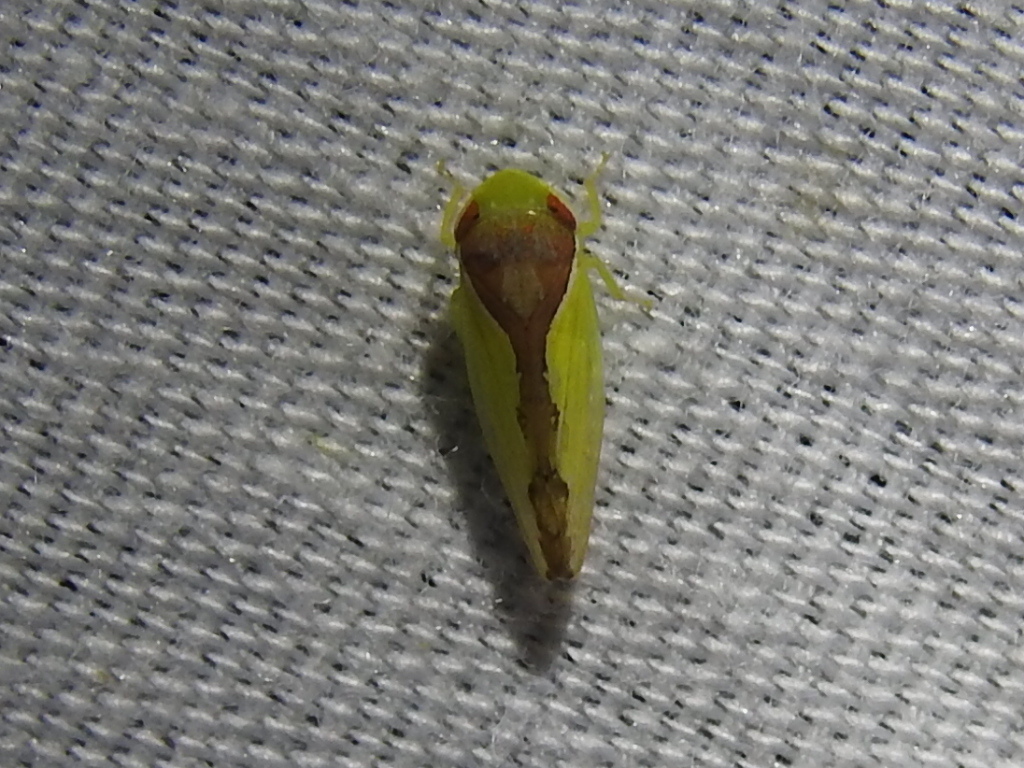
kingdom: Animalia
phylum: Arthropoda
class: Insecta
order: Hemiptera
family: Cicadellidae
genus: Omansobara ing
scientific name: Omansobara ing Omansobara palliolata
